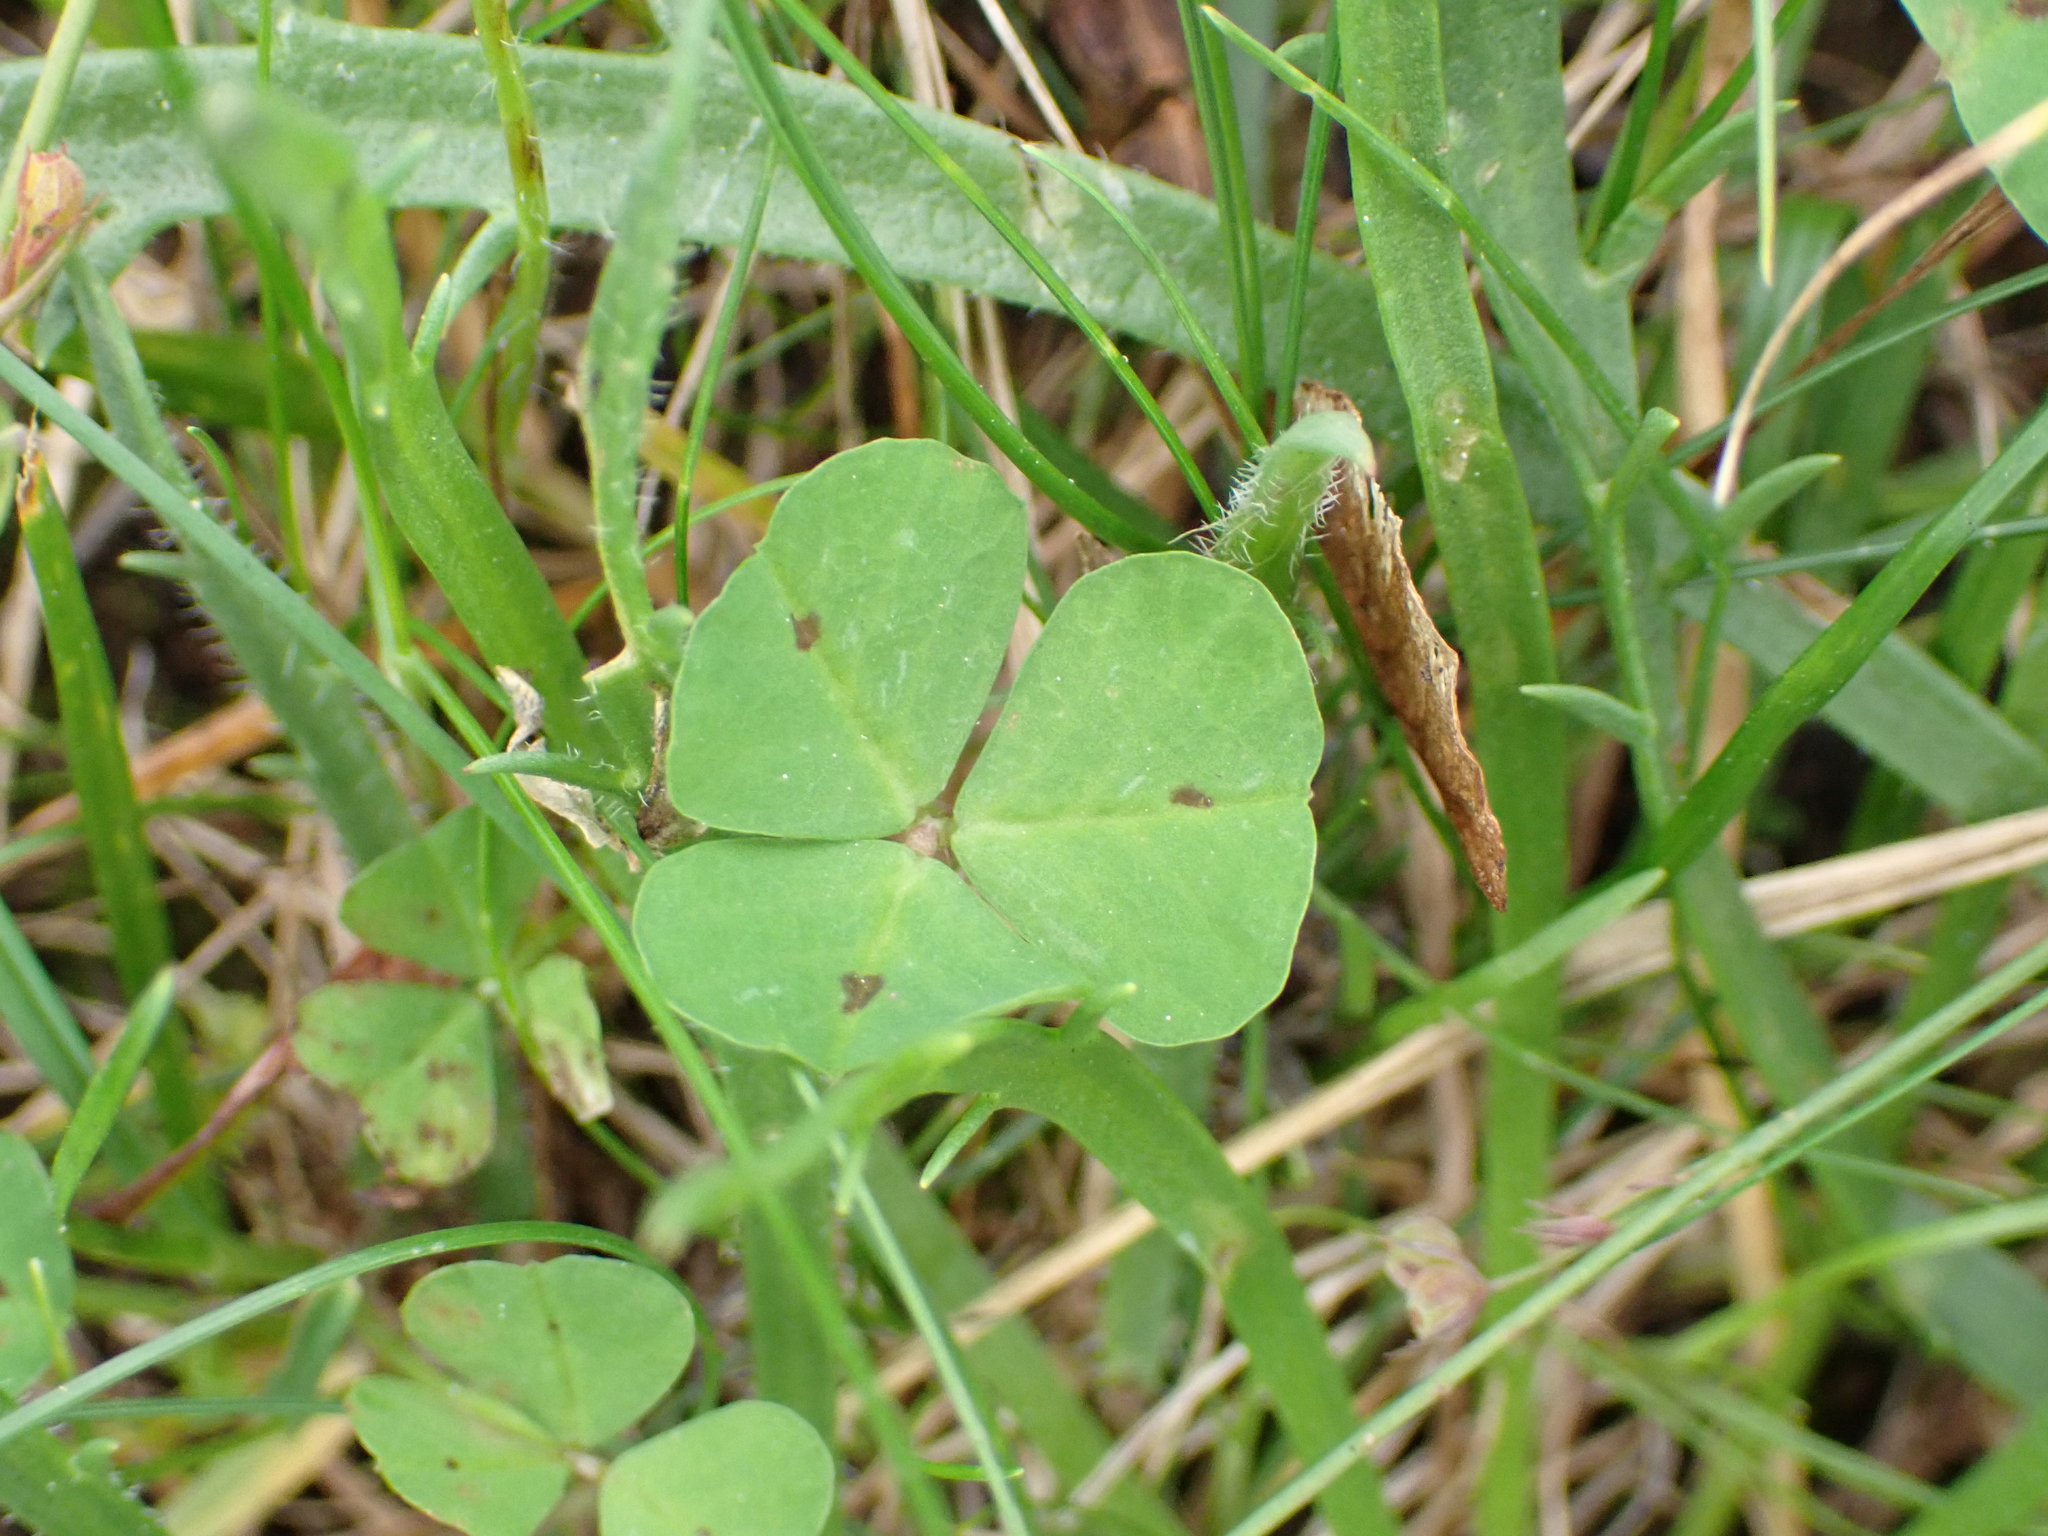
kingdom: Plantae
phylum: Tracheophyta
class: Magnoliopsida
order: Fabales
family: Fabaceae
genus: Medicago
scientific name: Medicago arabica
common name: Spotted medick
